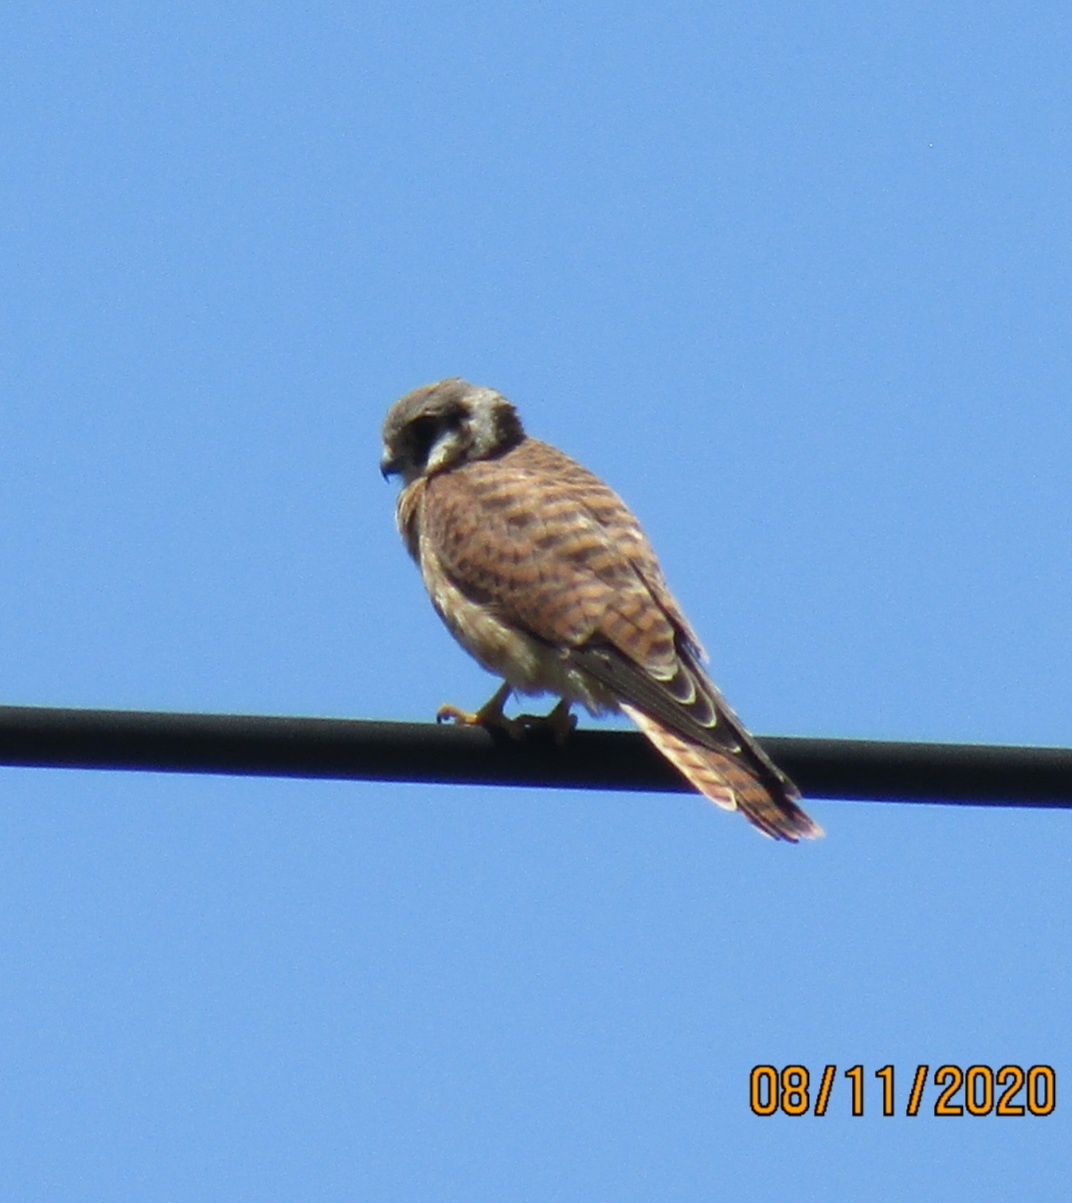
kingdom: Animalia
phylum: Chordata
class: Aves
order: Falconiformes
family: Falconidae
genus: Falco
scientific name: Falco sparverius
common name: American kestrel
